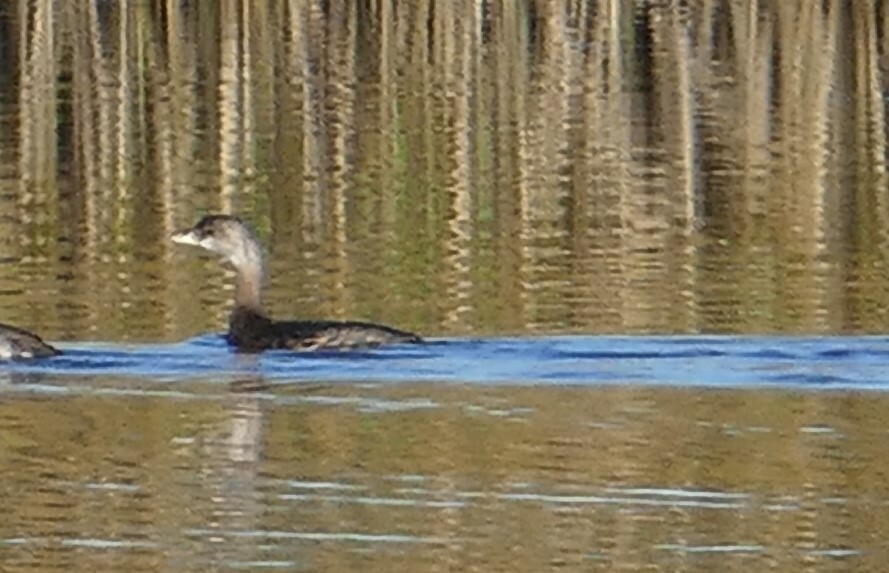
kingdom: Animalia
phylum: Chordata
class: Aves
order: Podicipediformes
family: Podicipedidae
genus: Podilymbus
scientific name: Podilymbus podiceps
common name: Pied-billed grebe
